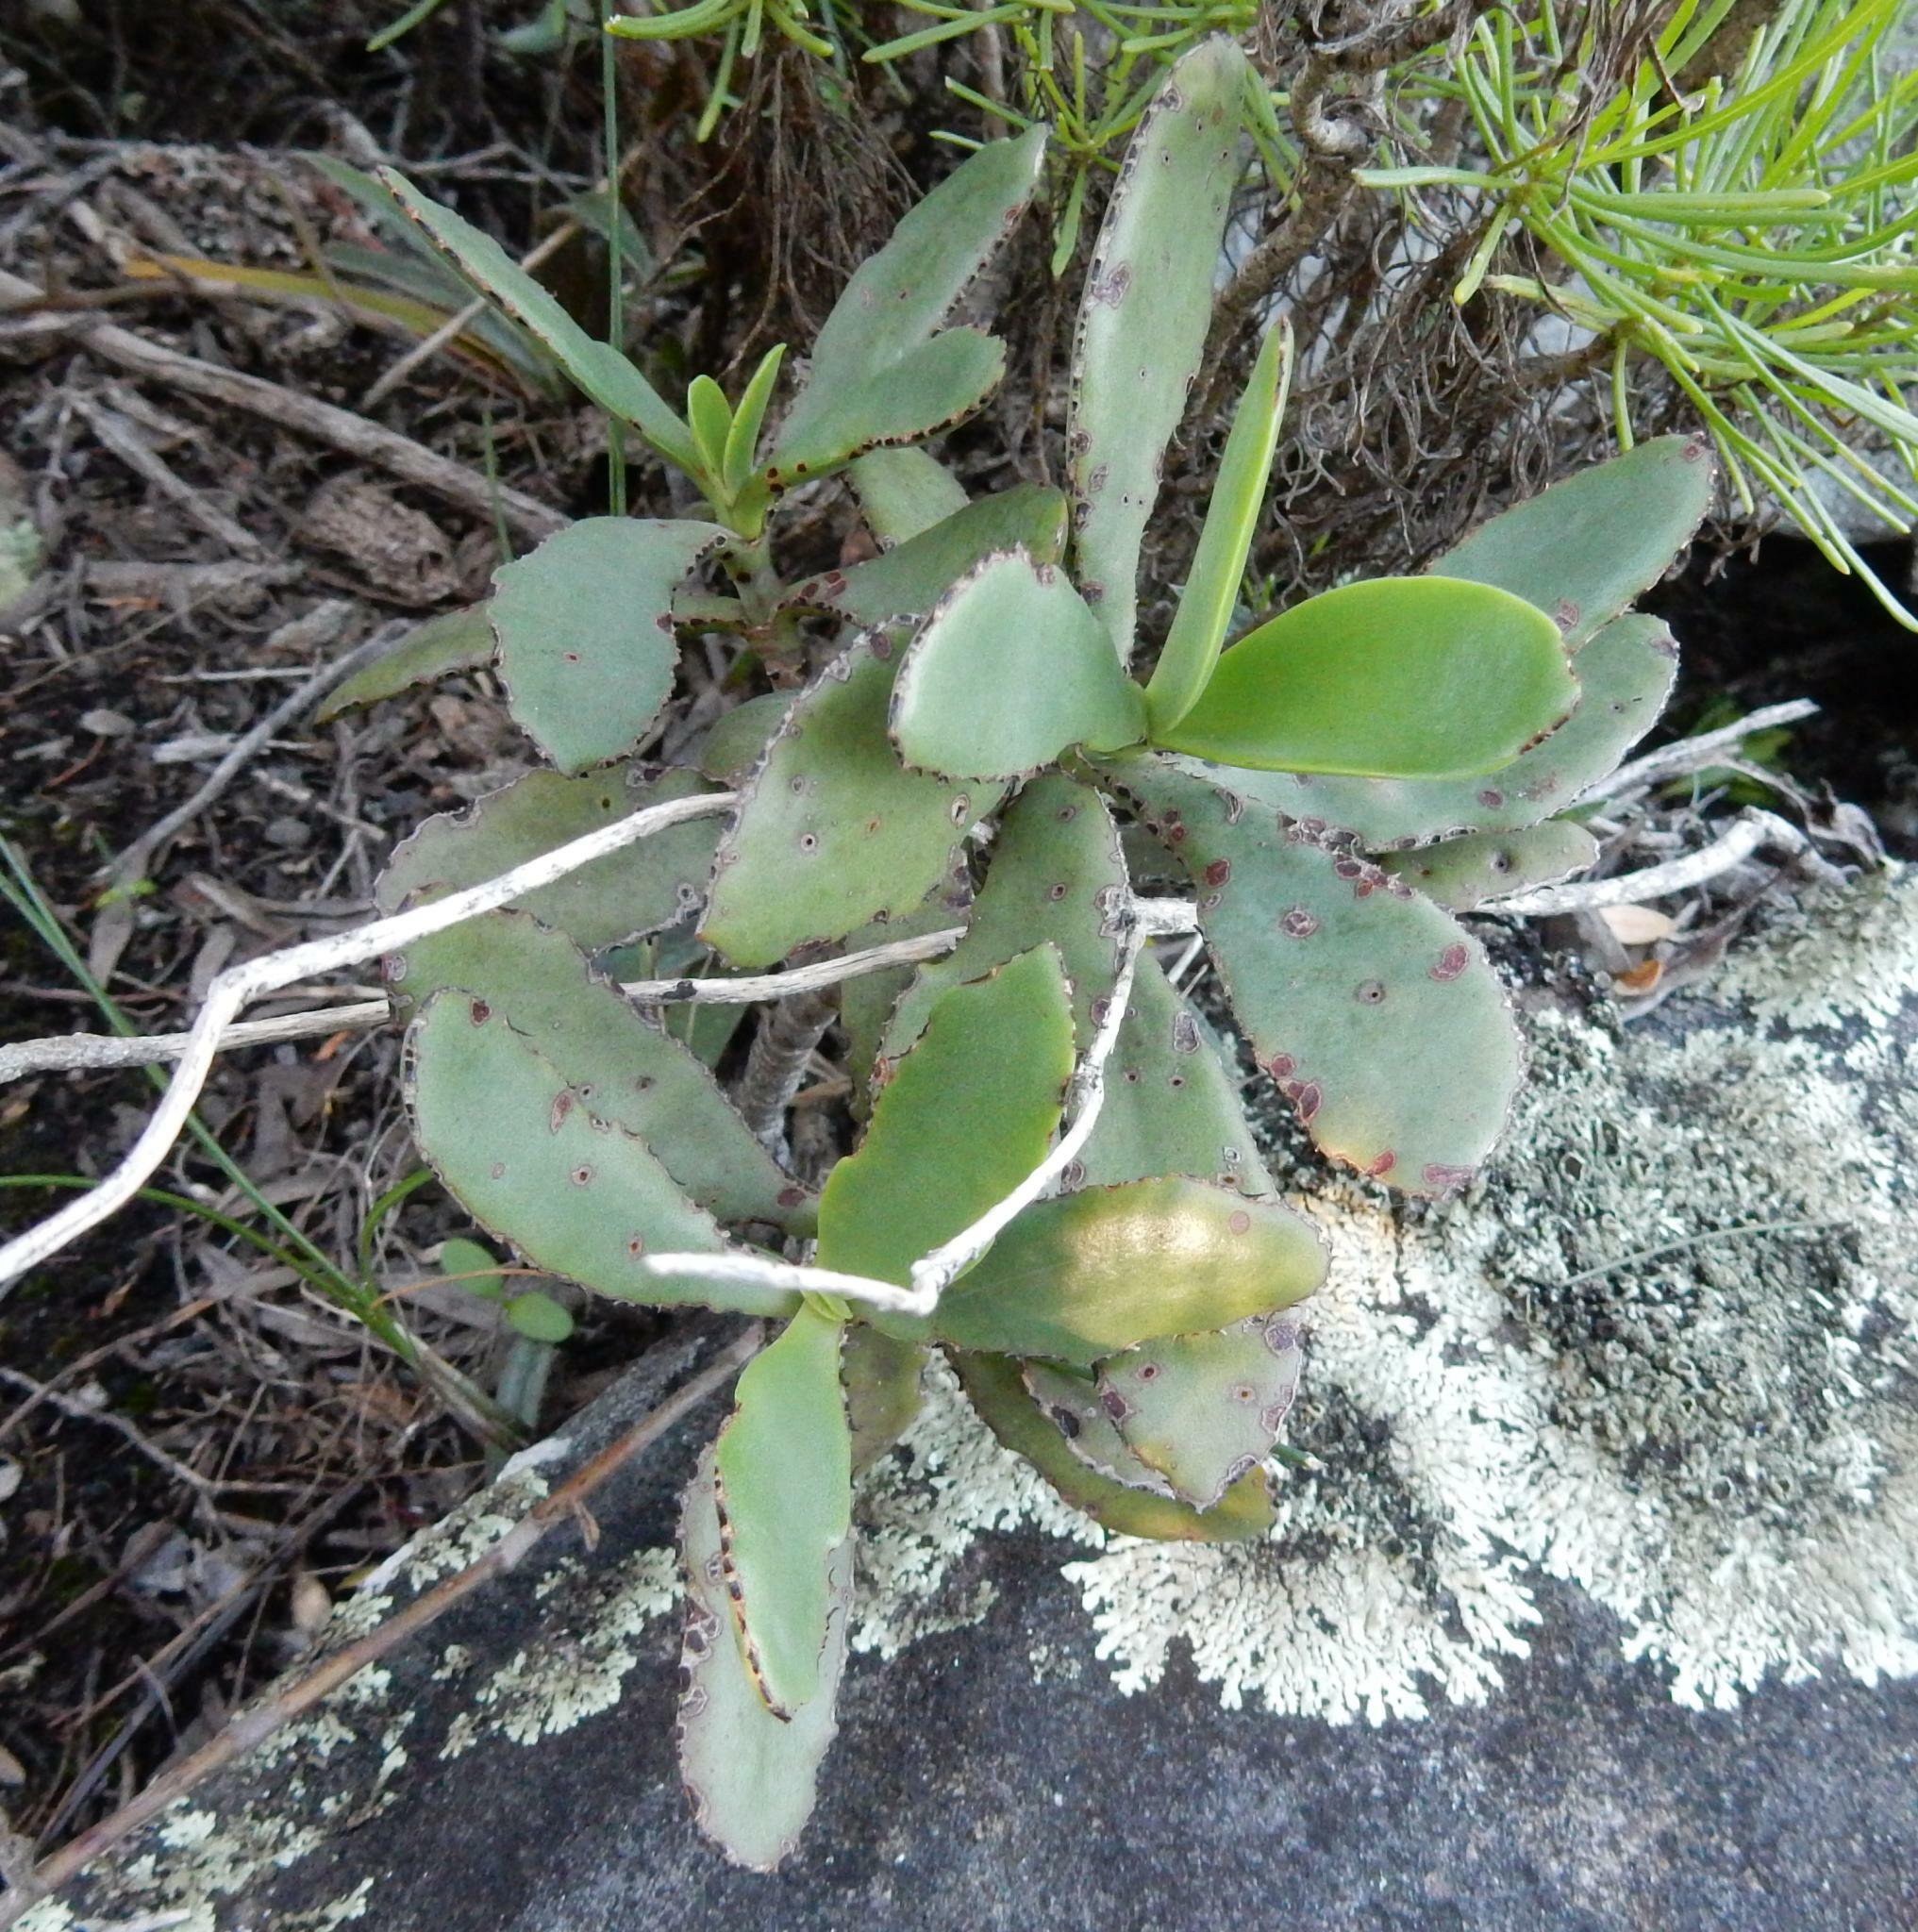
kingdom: Plantae
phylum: Tracheophyta
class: Magnoliopsida
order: Saxifragales
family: Crassulaceae
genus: Crassula
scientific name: Crassula cultrata
